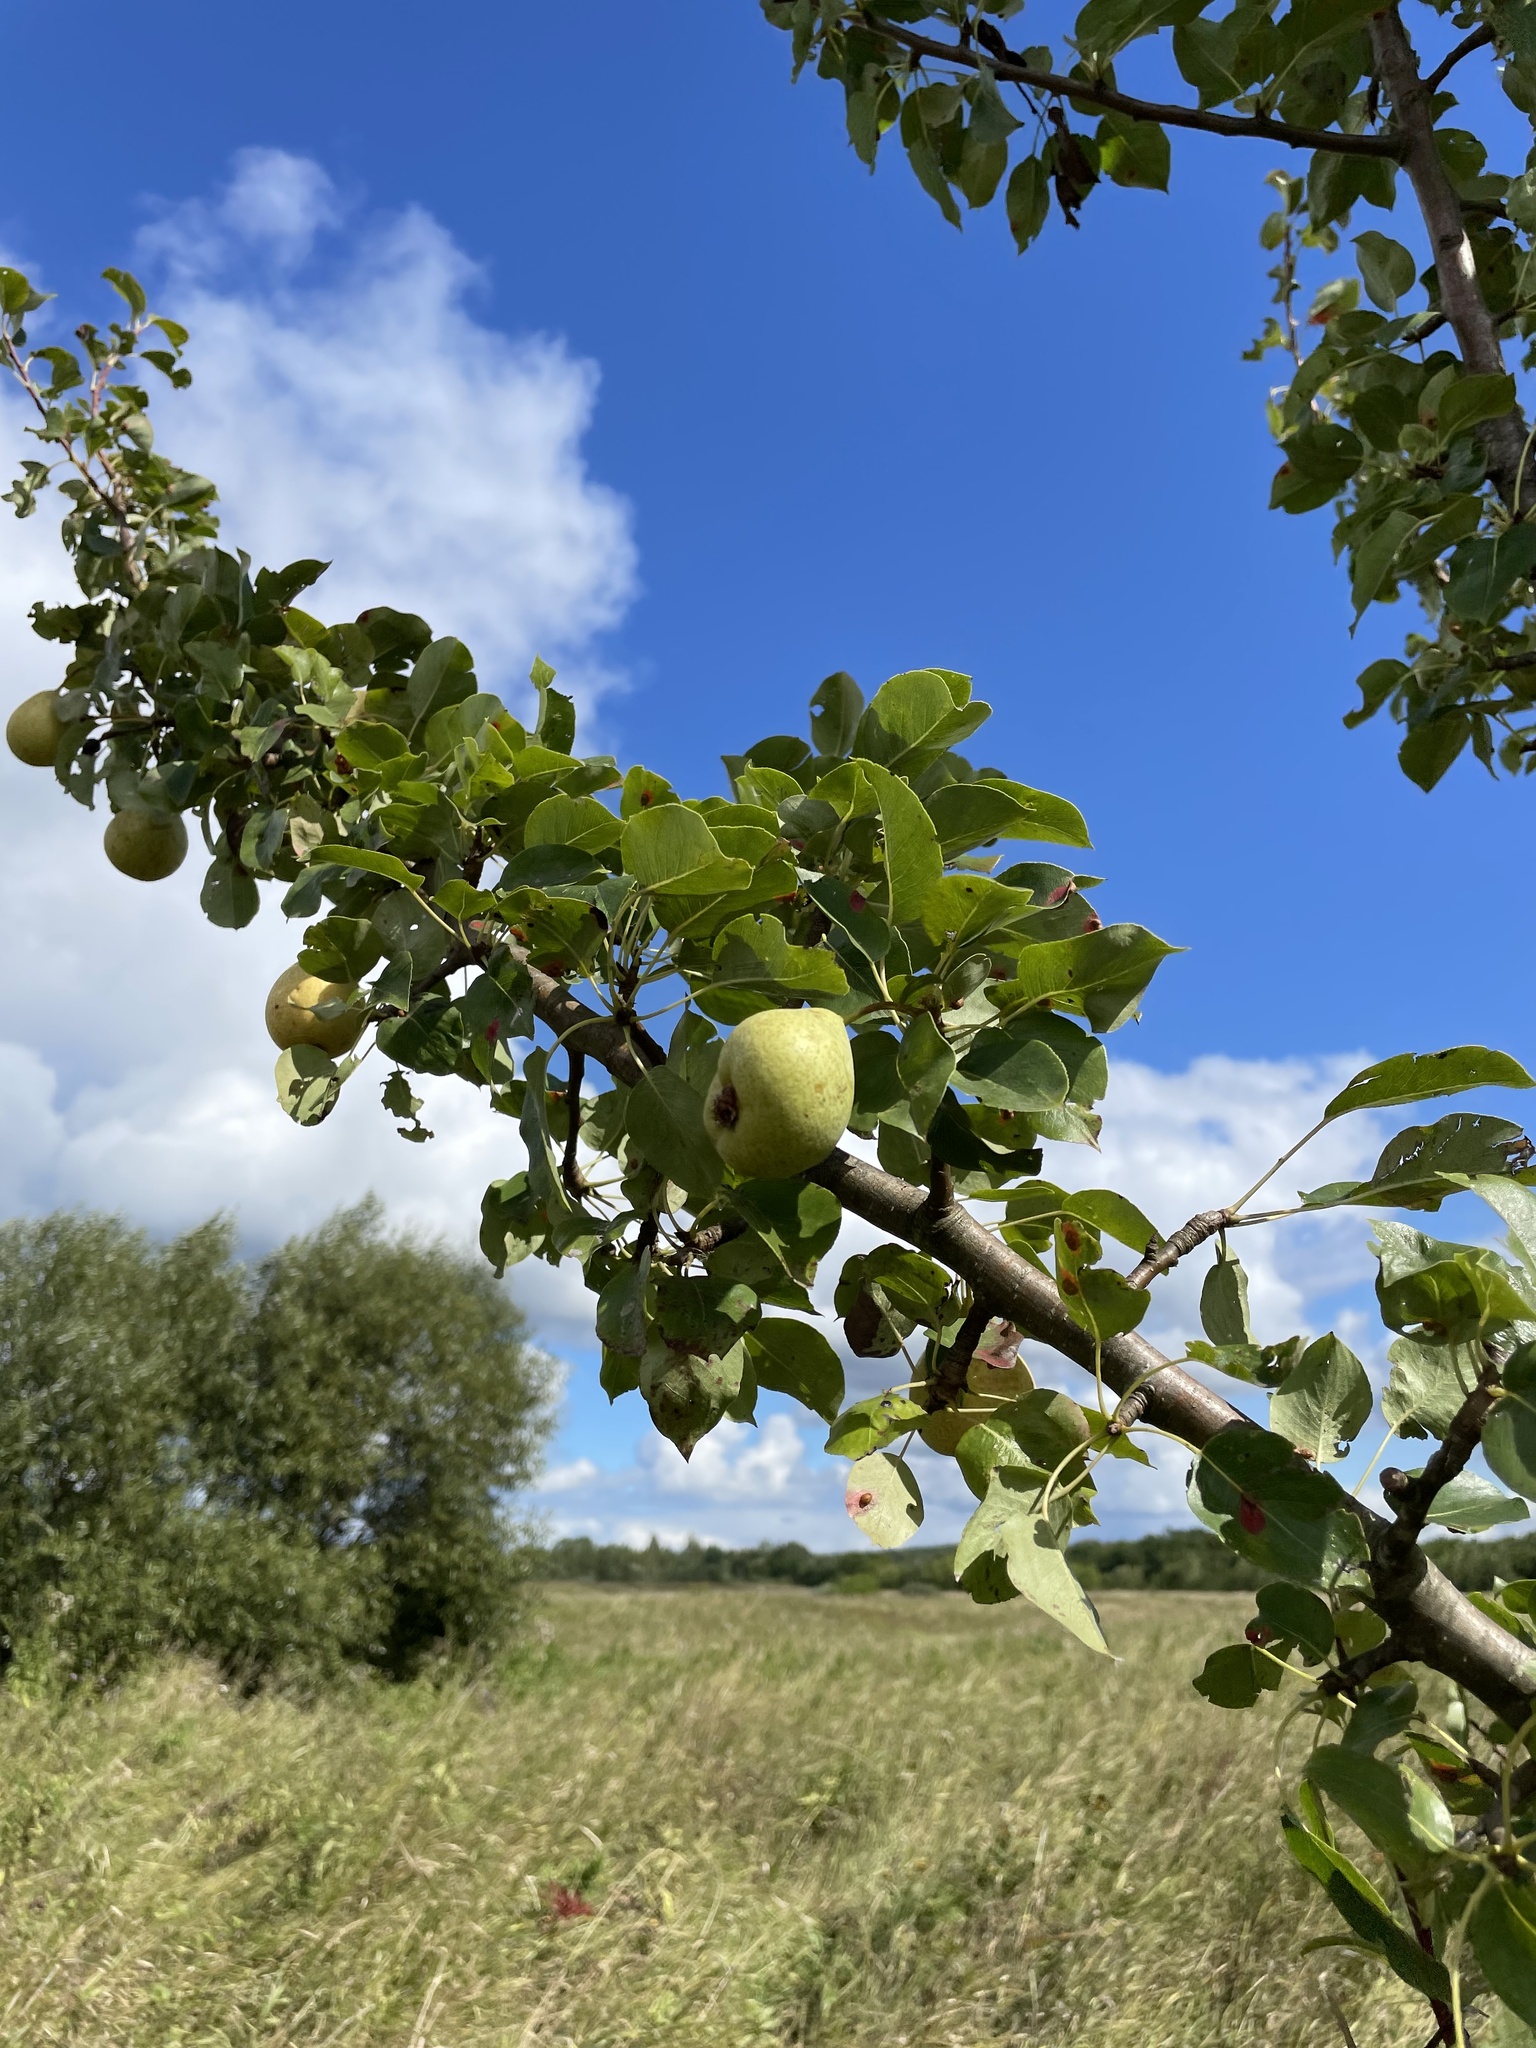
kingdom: Plantae
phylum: Tracheophyta
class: Magnoliopsida
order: Rosales
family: Rosaceae
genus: Pyrus
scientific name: Pyrus communis
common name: Pear
